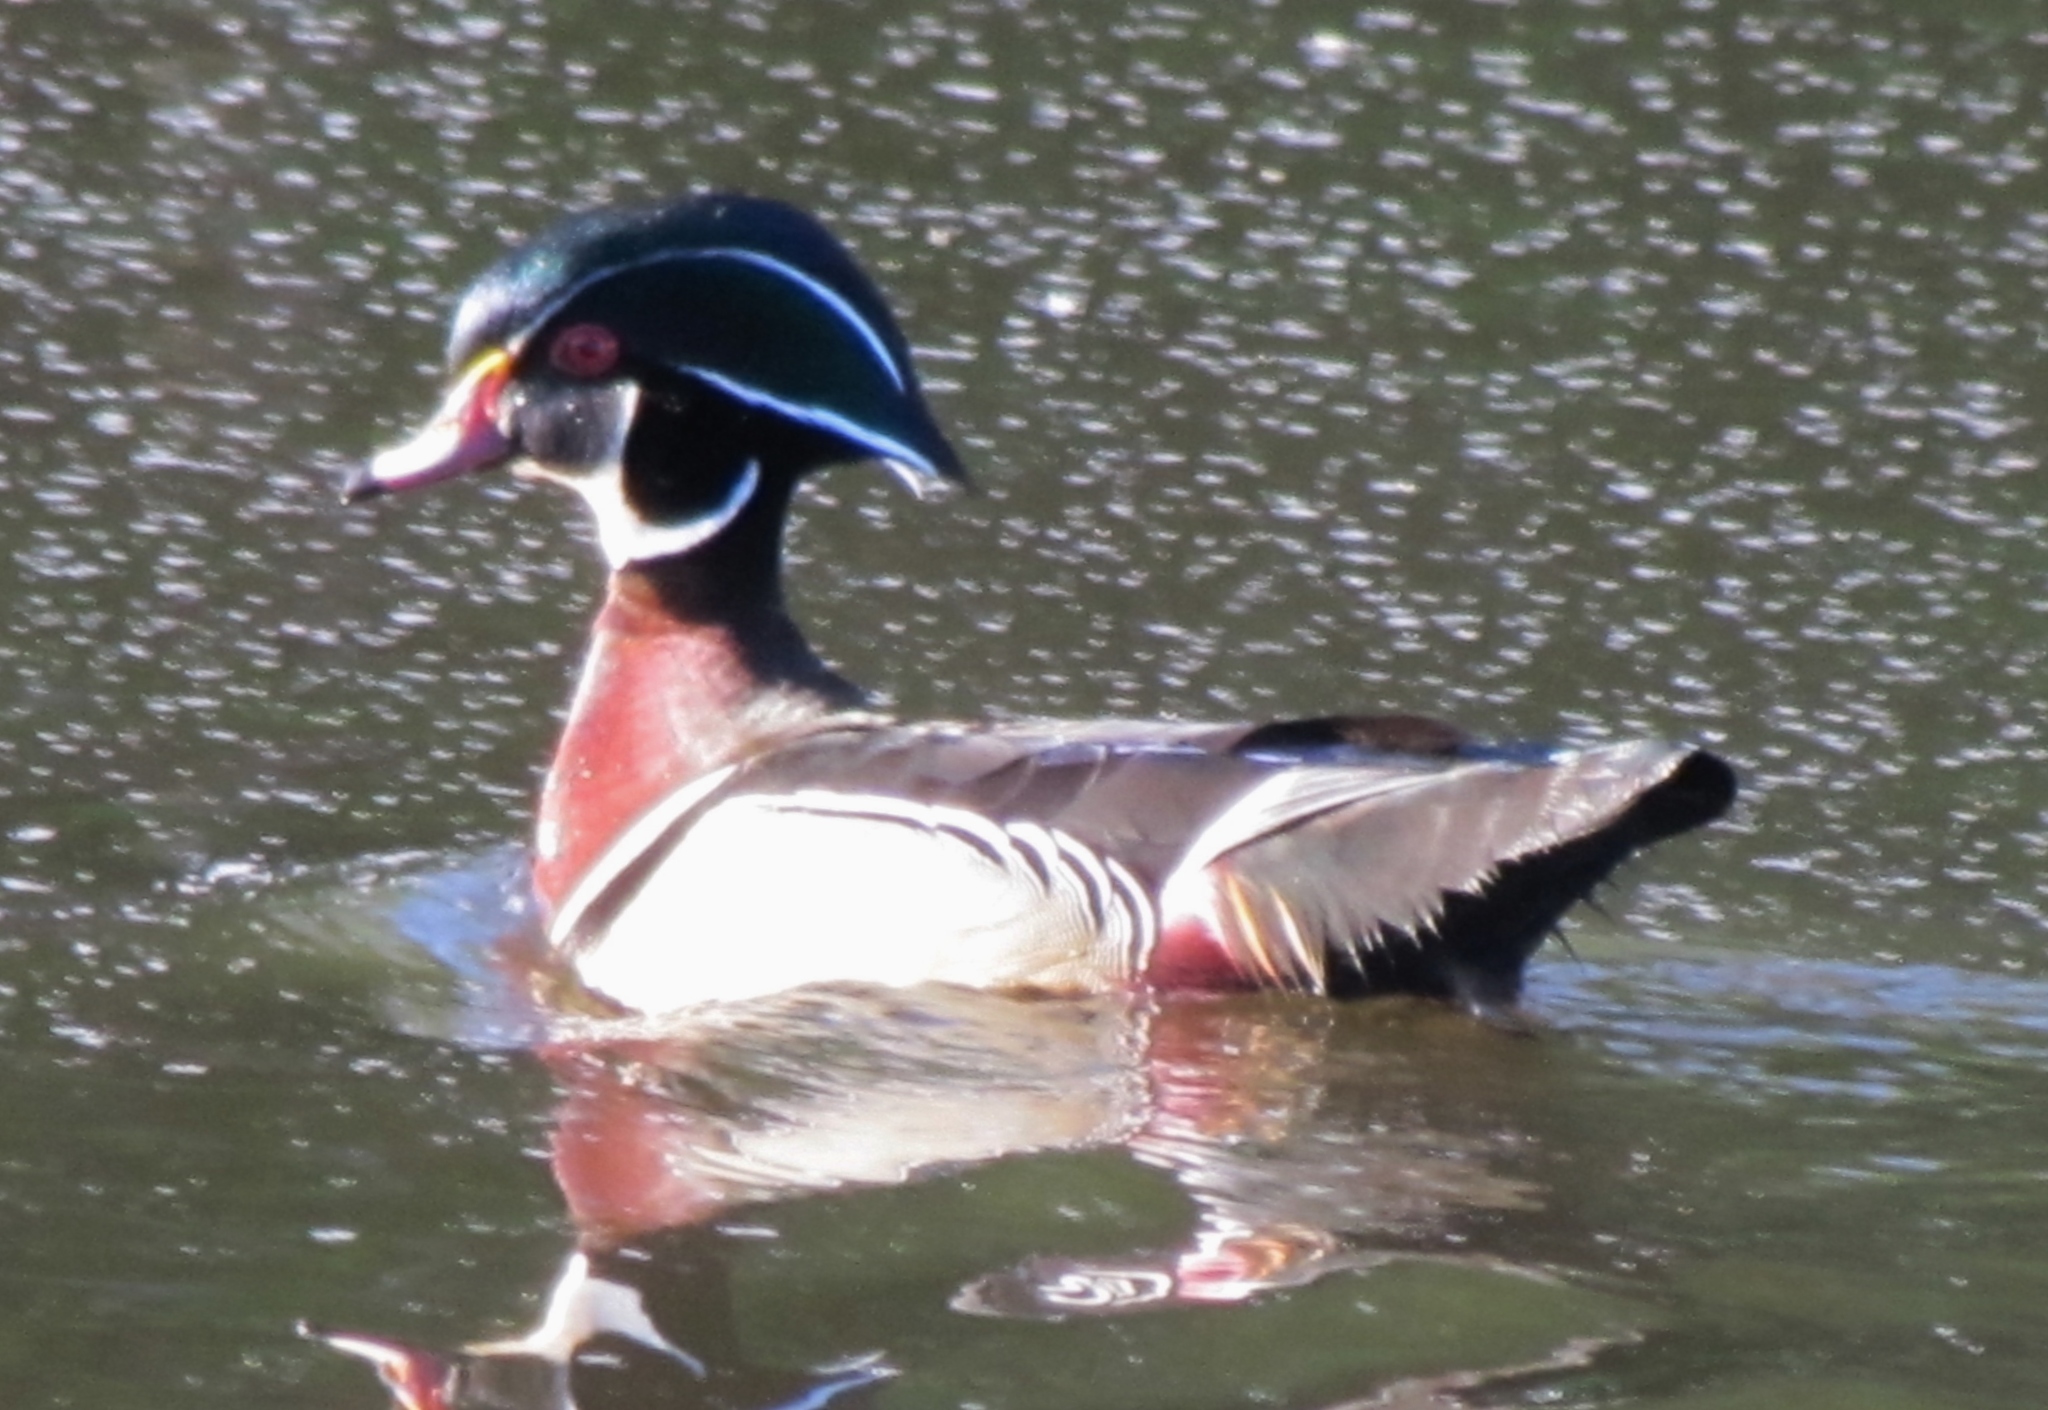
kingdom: Animalia
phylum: Chordata
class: Aves
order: Anseriformes
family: Anatidae
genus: Aix
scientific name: Aix sponsa
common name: Wood duck
